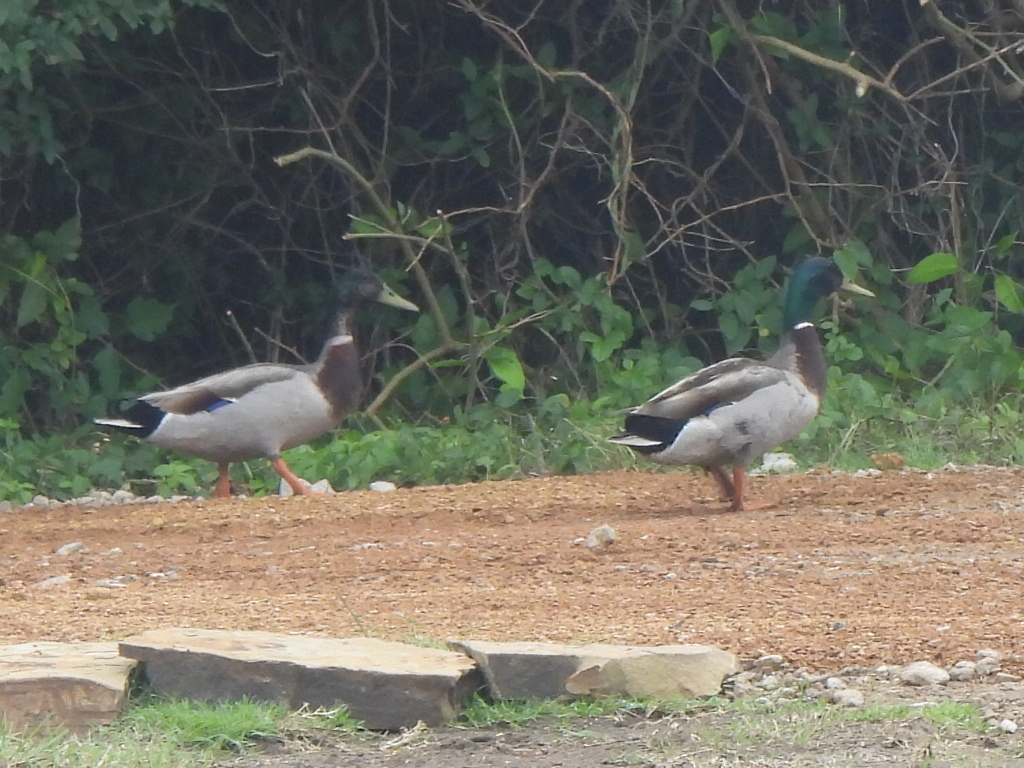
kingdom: Animalia
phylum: Chordata
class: Aves
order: Anseriformes
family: Anatidae
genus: Anas
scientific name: Anas platyrhynchos
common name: Mallard
